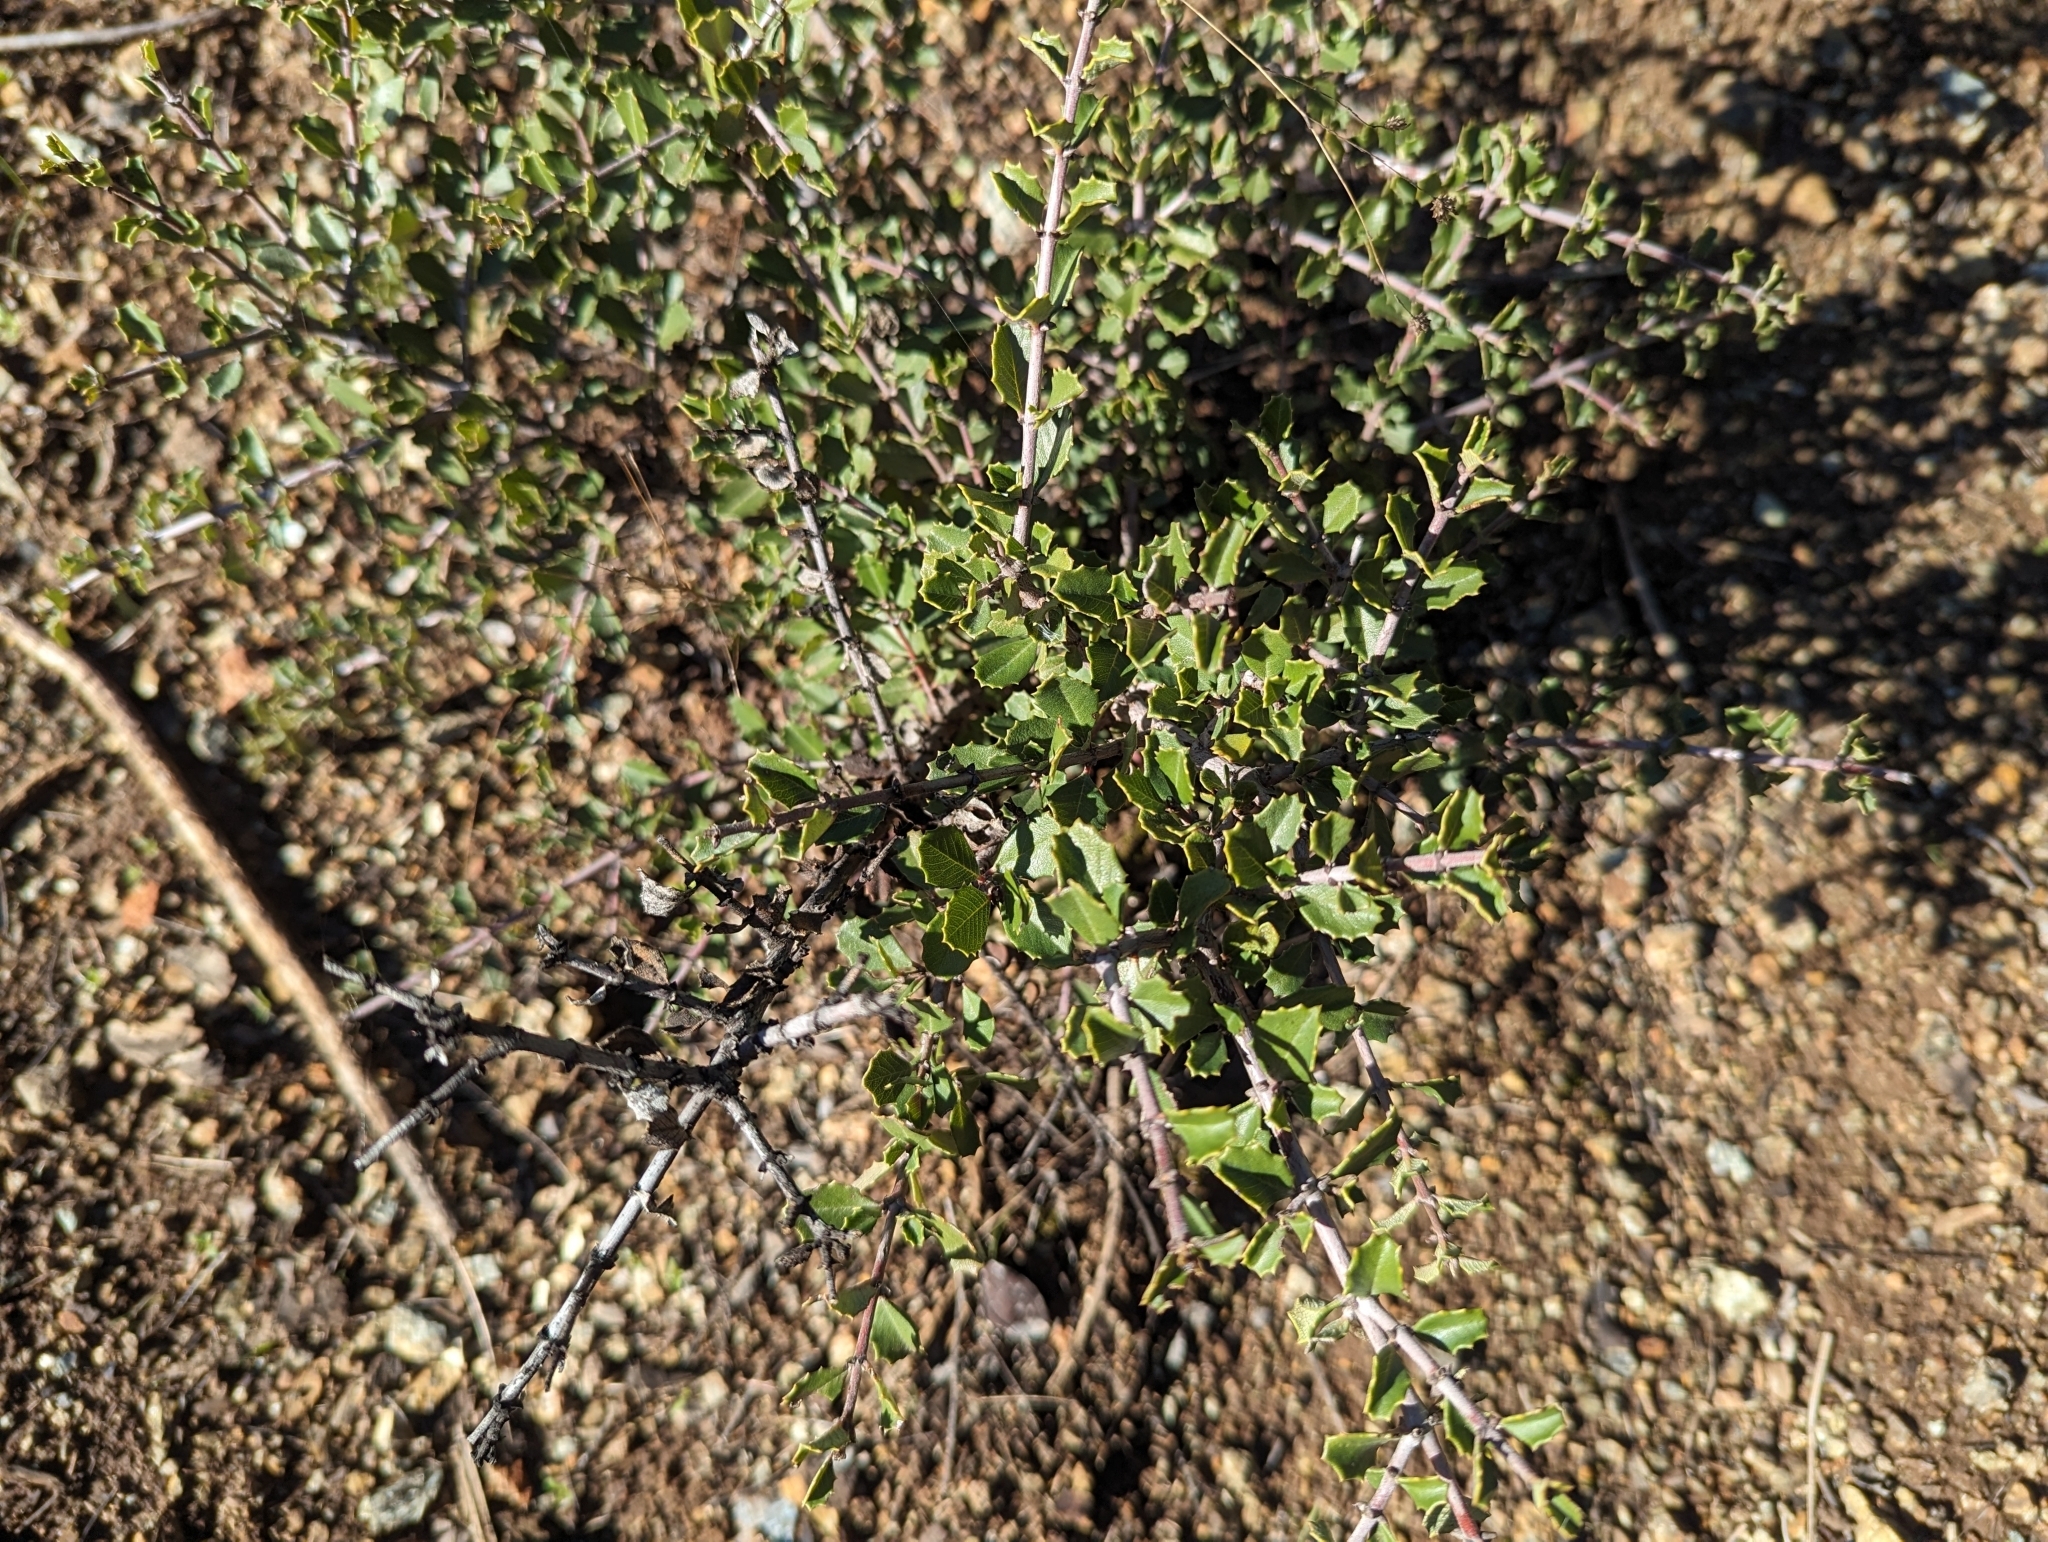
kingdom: Plantae
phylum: Tracheophyta
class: Magnoliopsida
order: Rosales
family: Rhamnaceae
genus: Ceanothus
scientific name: Ceanothus ferrisiae
